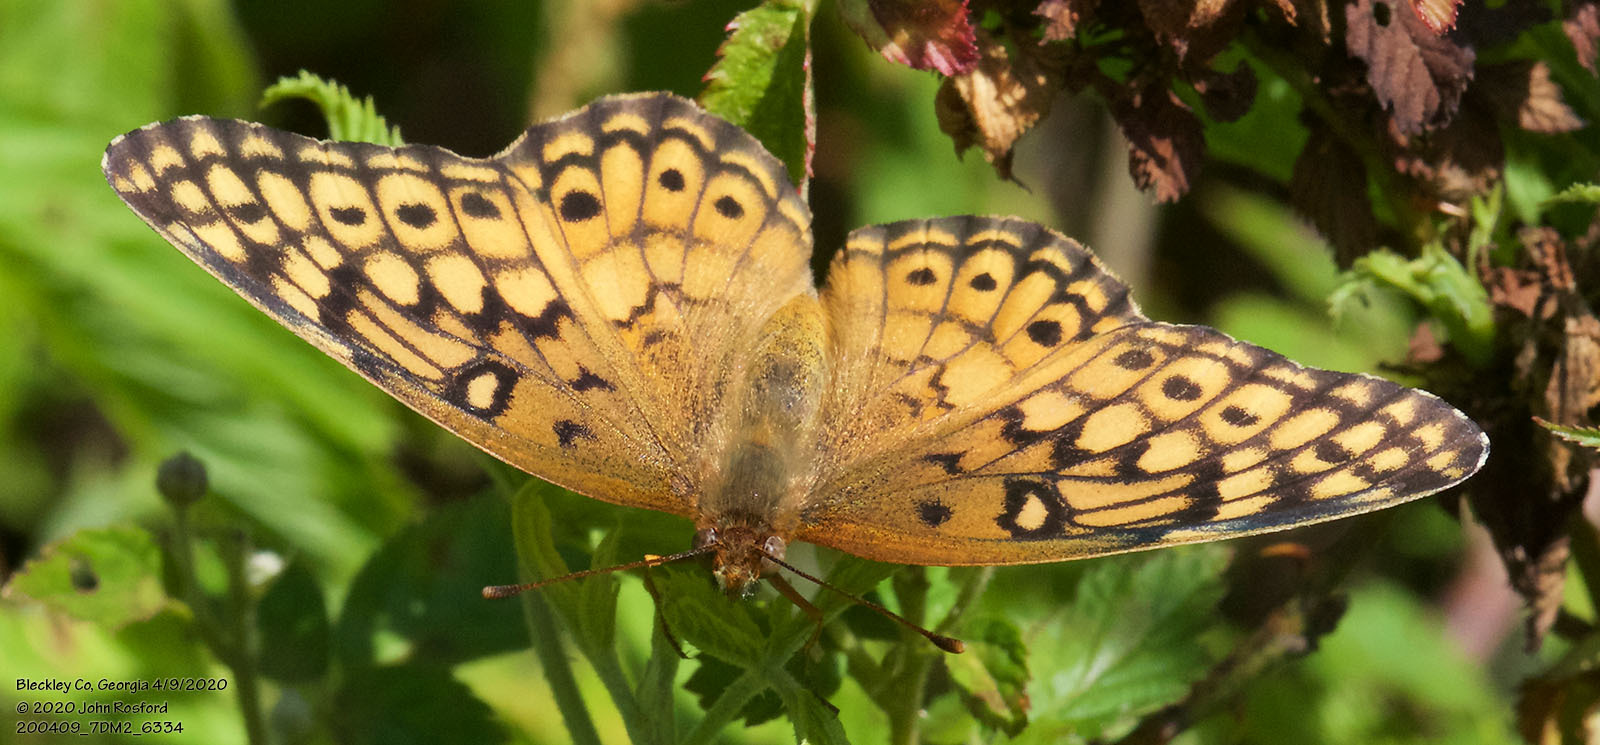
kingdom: Animalia
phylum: Arthropoda
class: Insecta
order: Lepidoptera
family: Nymphalidae
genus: Euptoieta
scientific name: Euptoieta claudia
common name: Variegated fritillary
